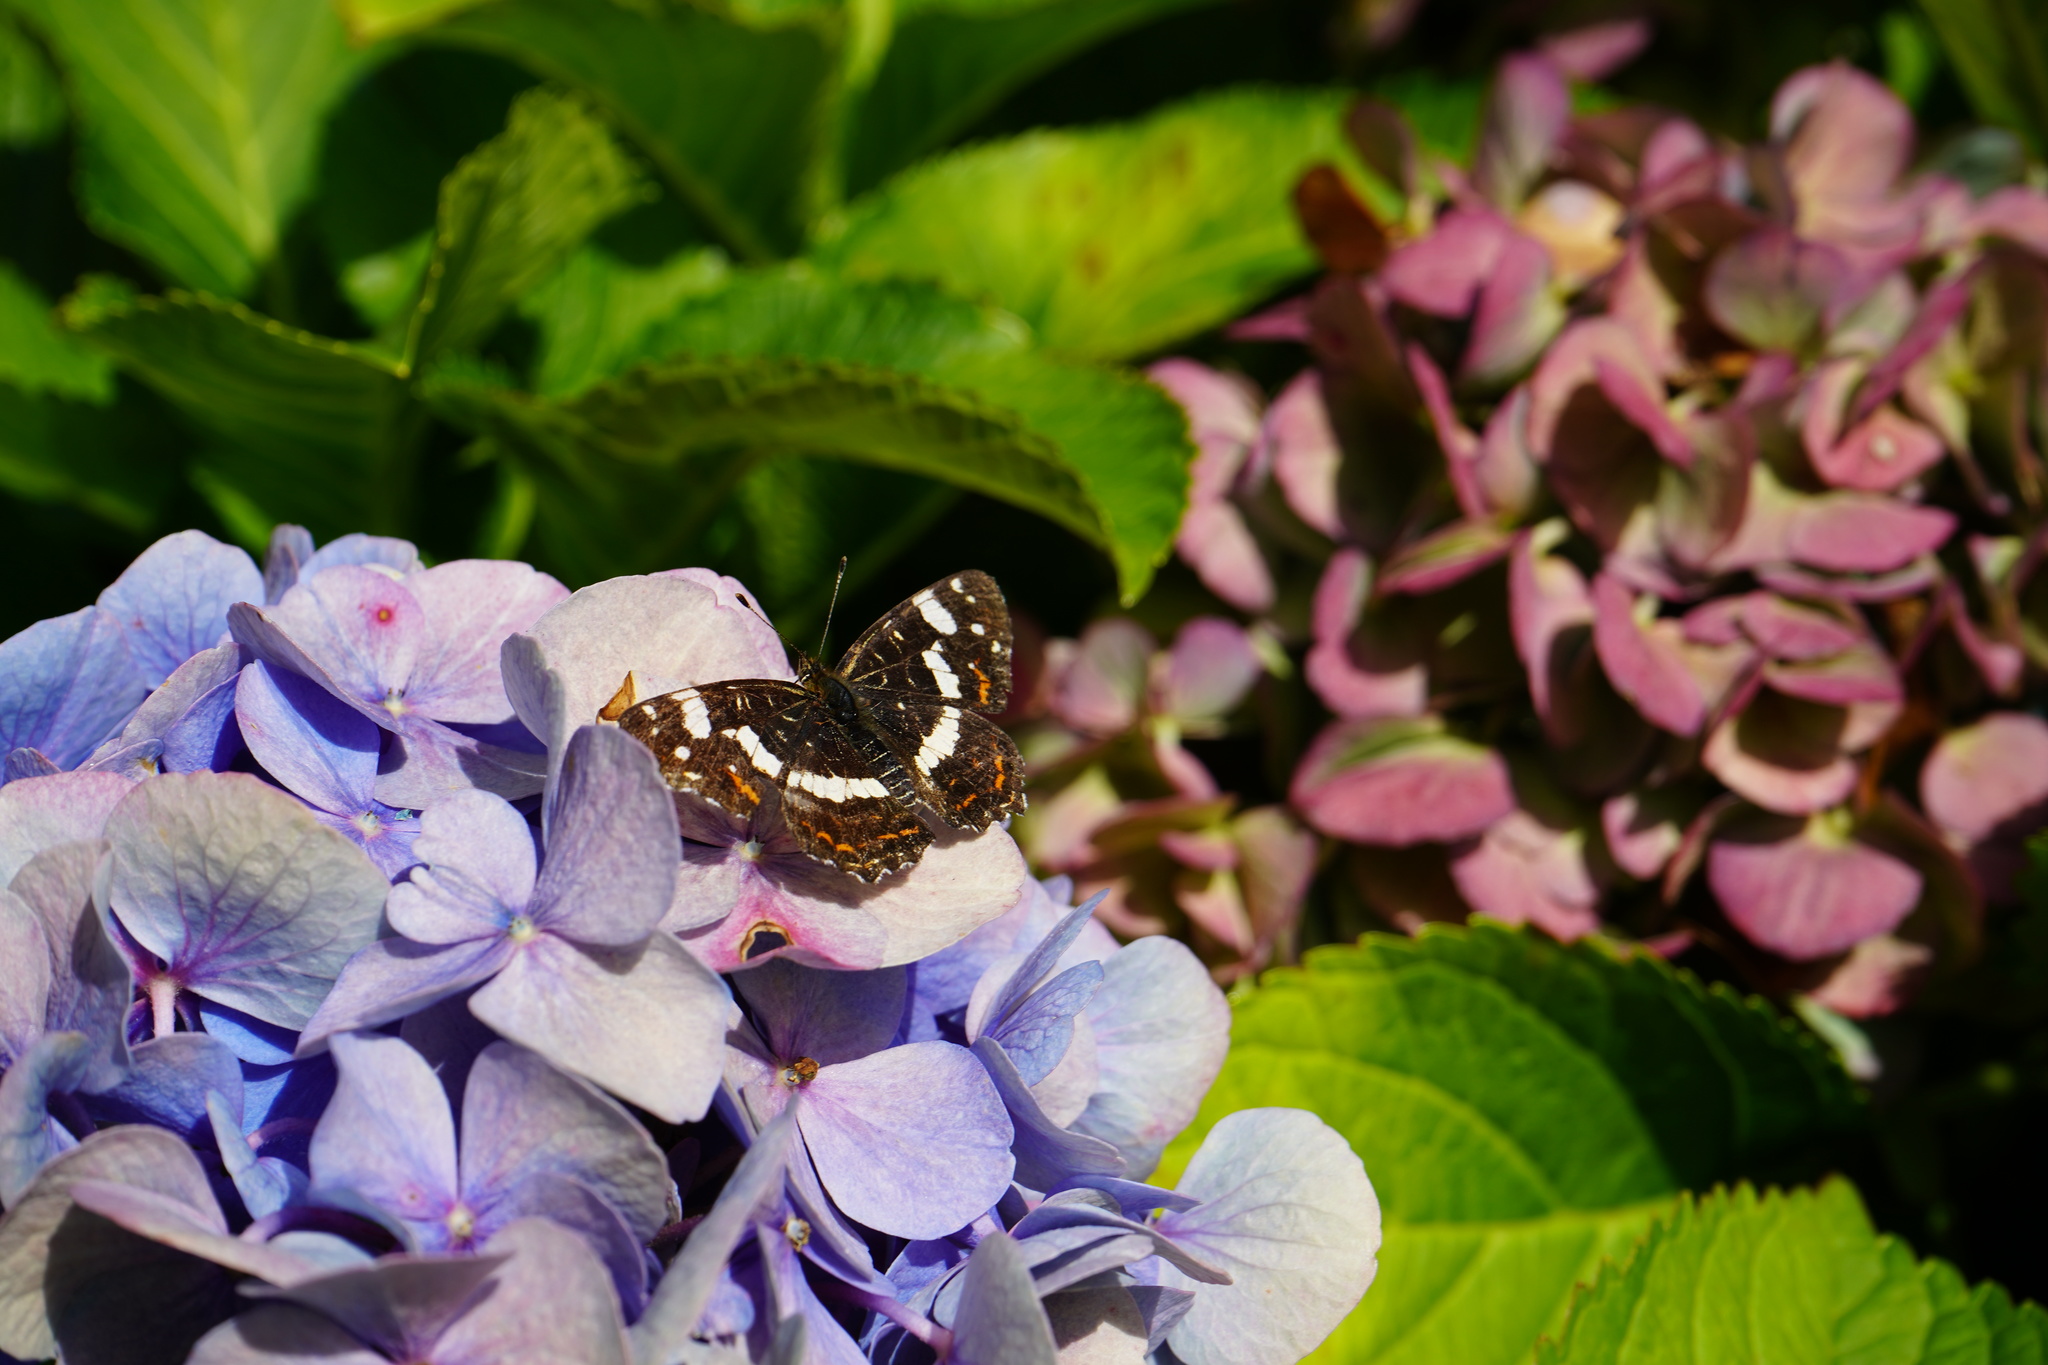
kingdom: Animalia
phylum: Arthropoda
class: Insecta
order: Lepidoptera
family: Nymphalidae
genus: Araschnia
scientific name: Araschnia levana
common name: Map butterfly
